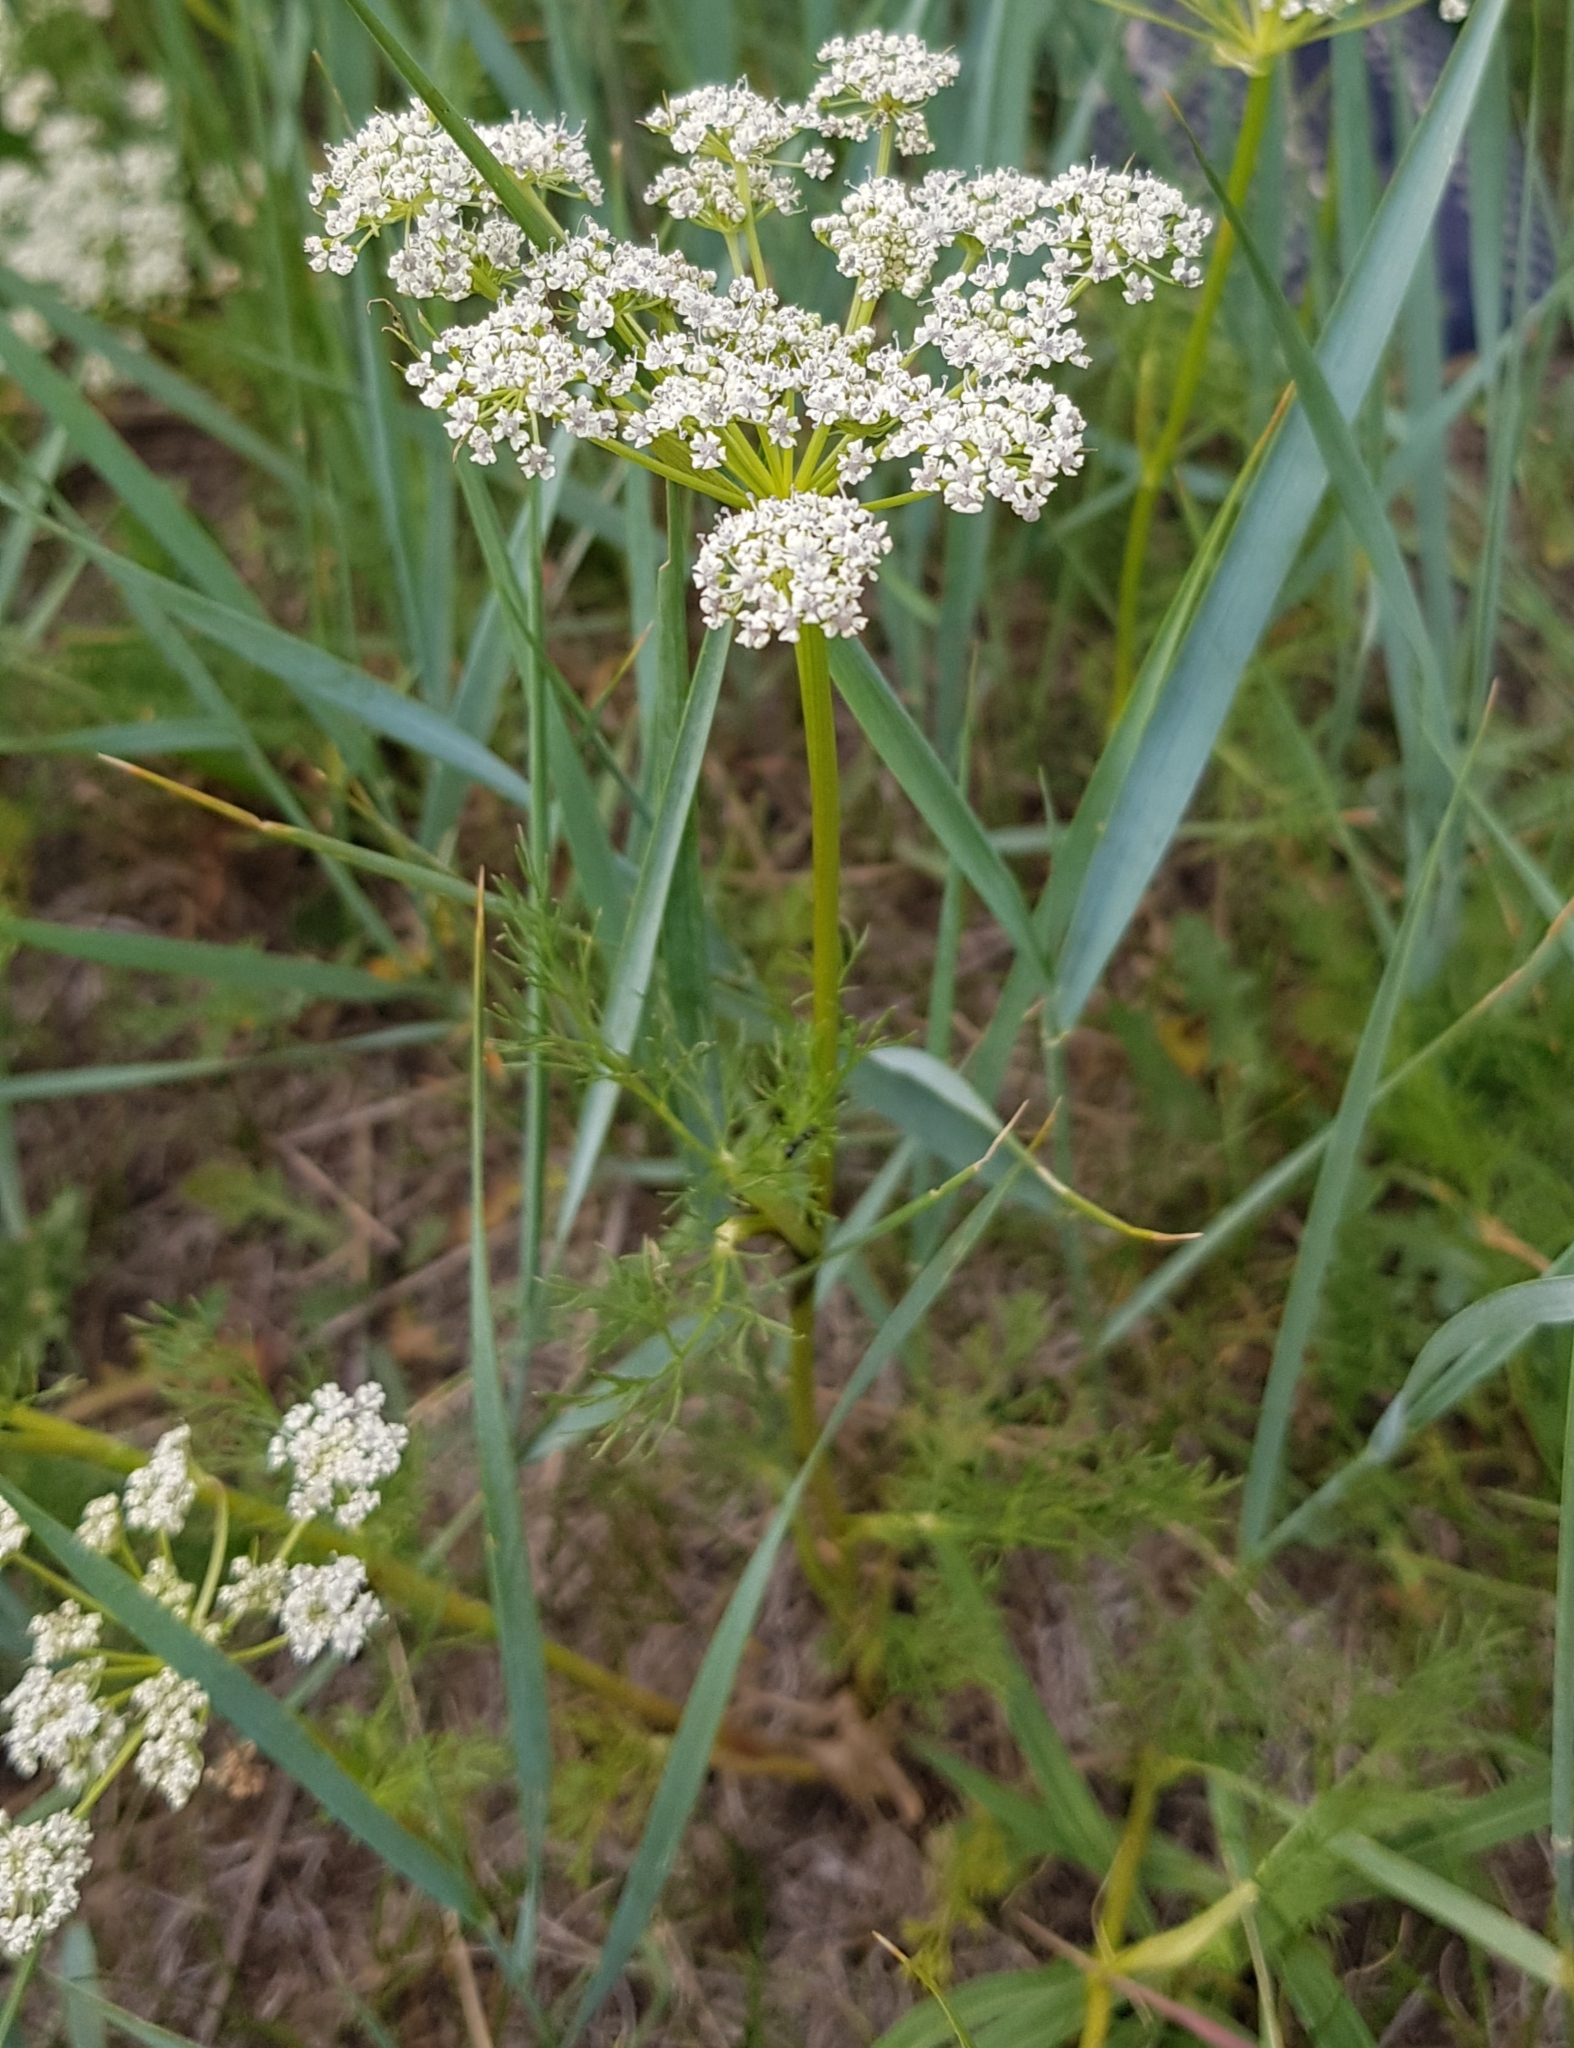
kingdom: Plantae
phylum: Tracheophyta
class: Magnoliopsida
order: Apiales
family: Apiaceae
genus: Peucedanum
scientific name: Peucedanum puberulum
